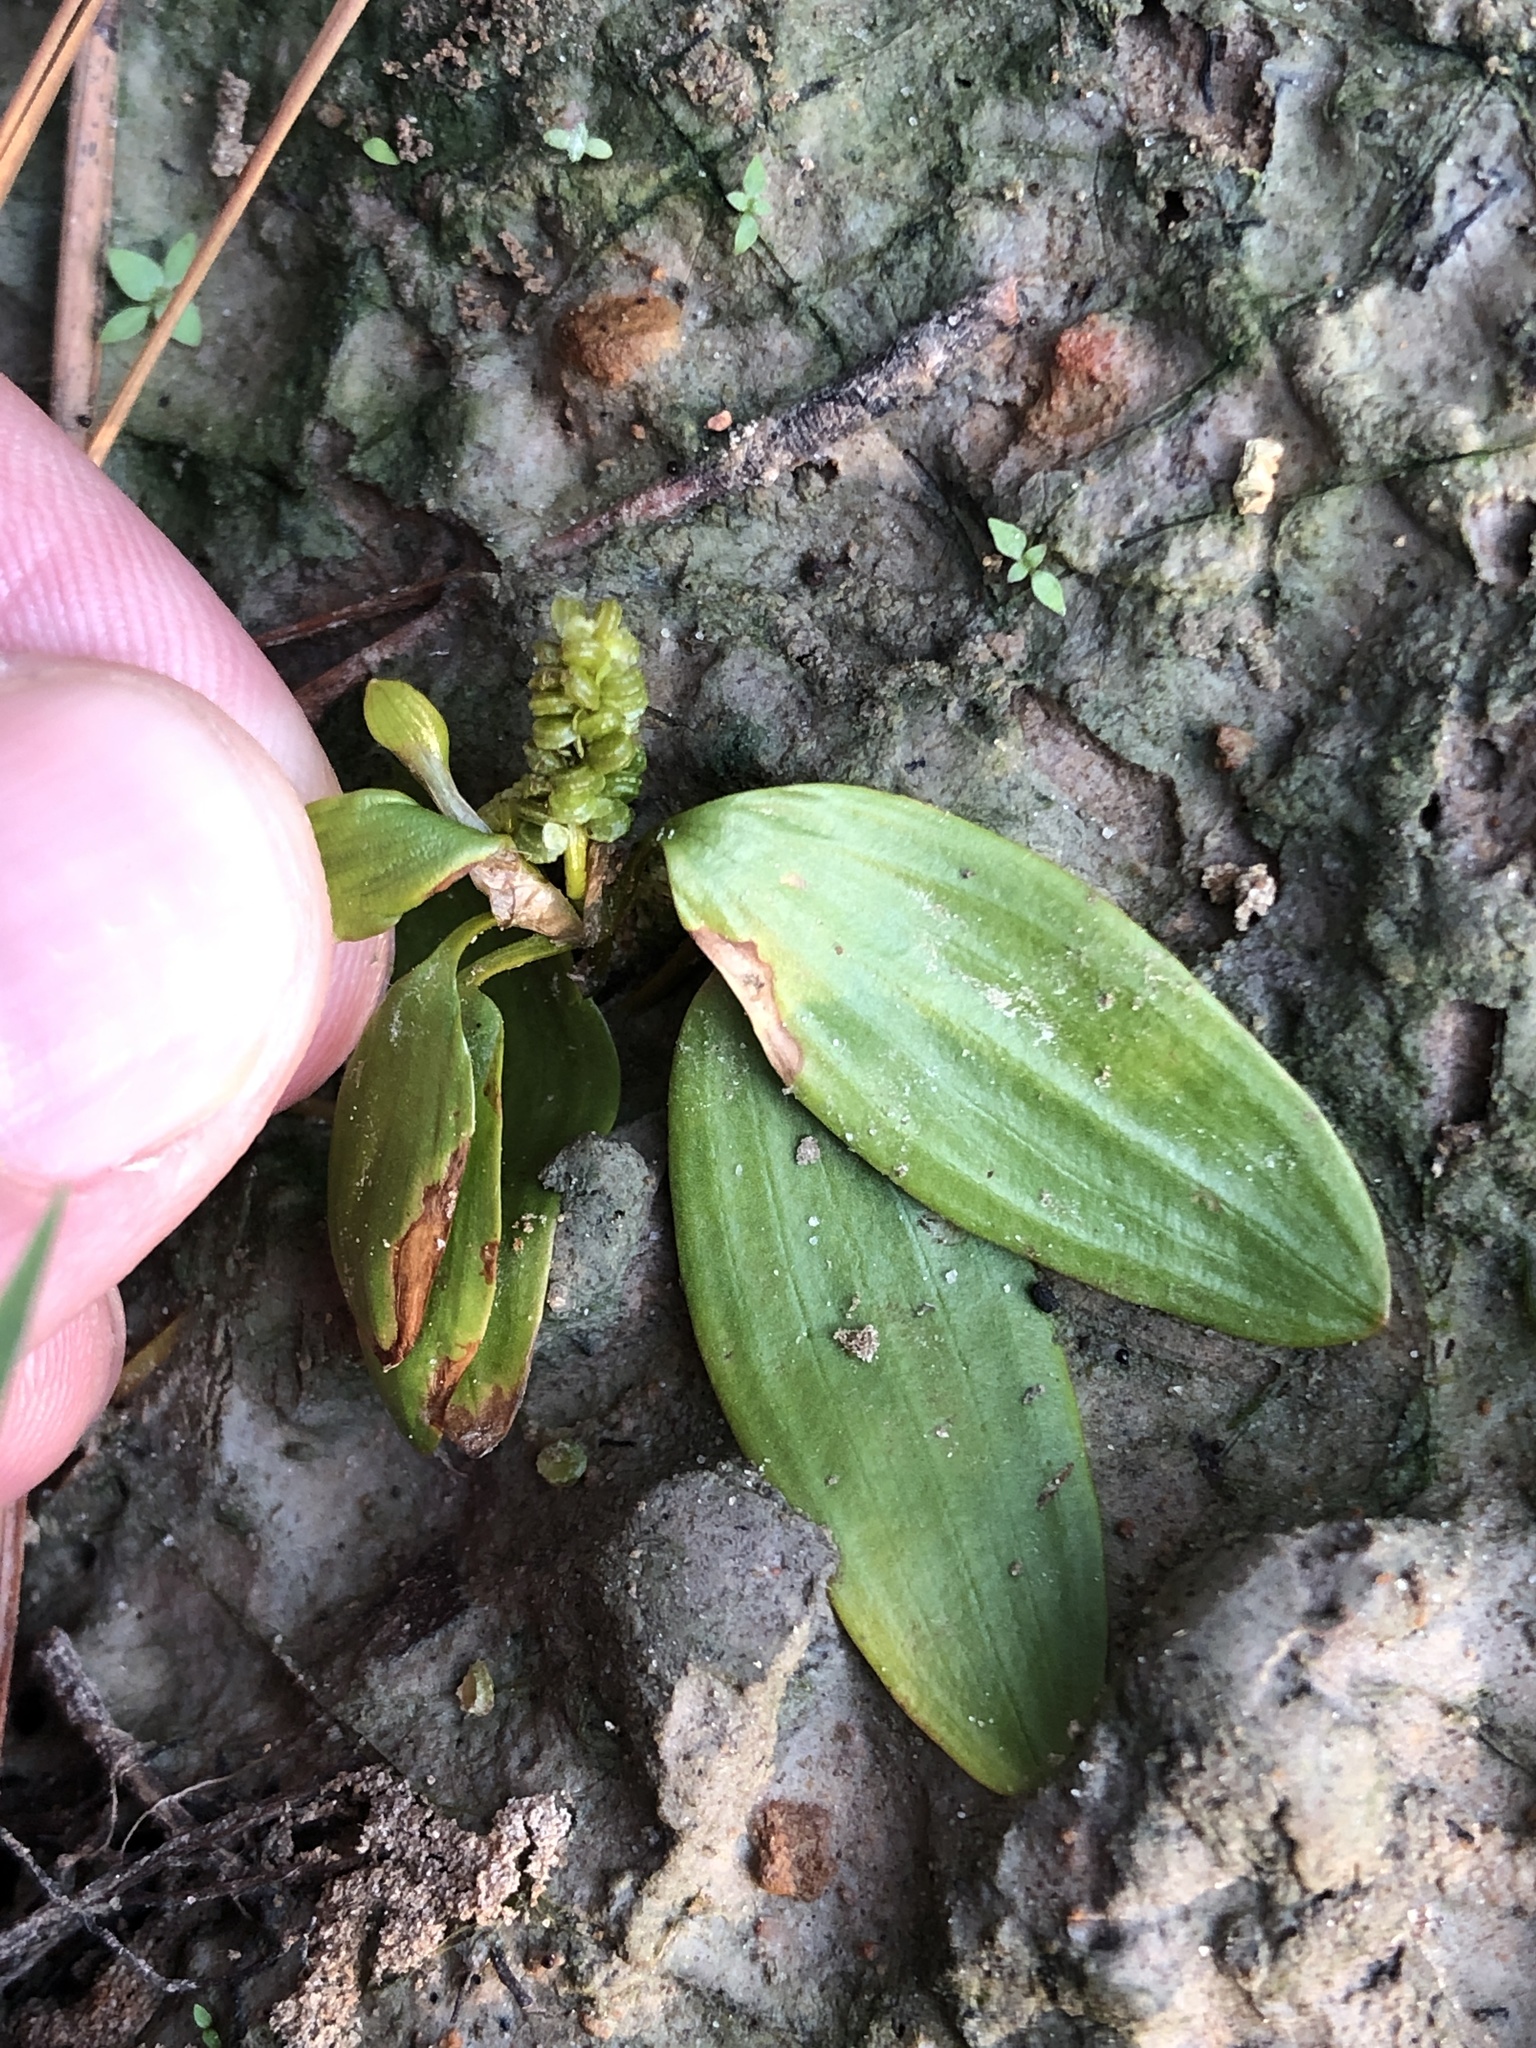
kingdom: Plantae
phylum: Tracheophyta
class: Liliopsida
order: Alismatales
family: Potamogetonaceae
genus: Potamogeton
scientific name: Potamogeton diversifolius
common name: Water-thread pondweed
